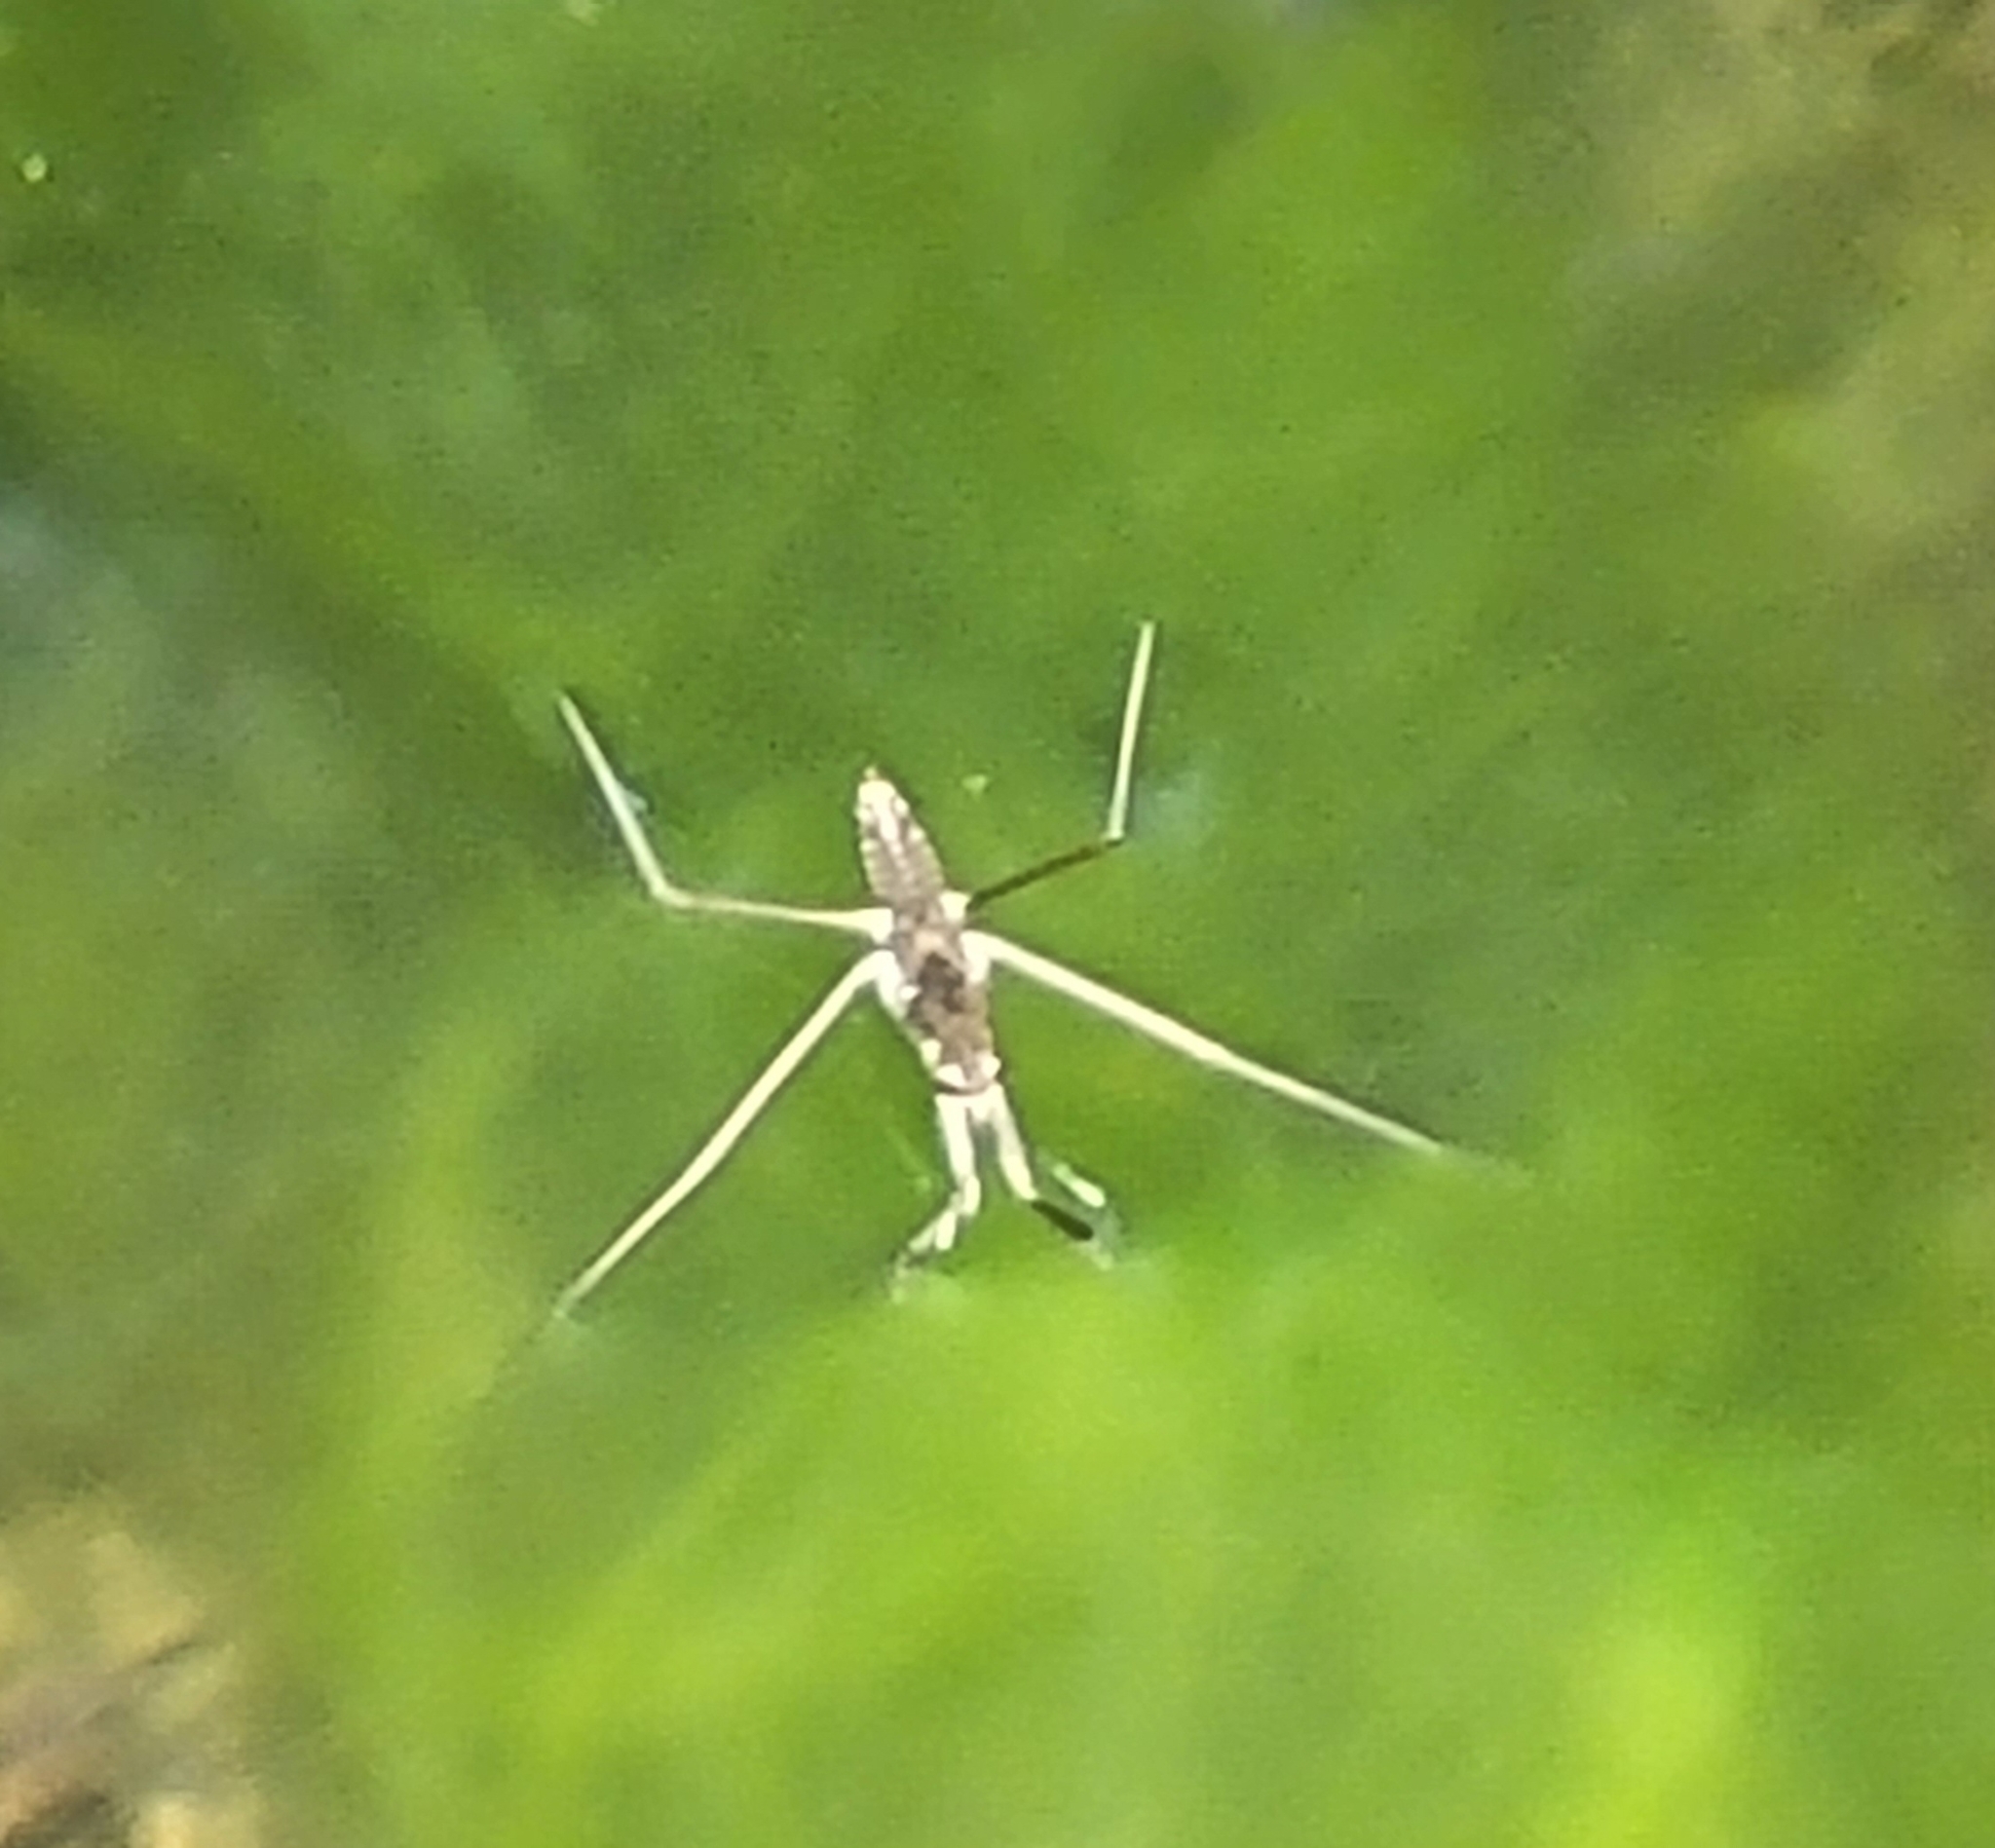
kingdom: Animalia
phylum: Arthropoda
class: Insecta
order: Hemiptera
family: Gerridae
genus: Aquarius
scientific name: Aquarius remigis
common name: Common water strider
